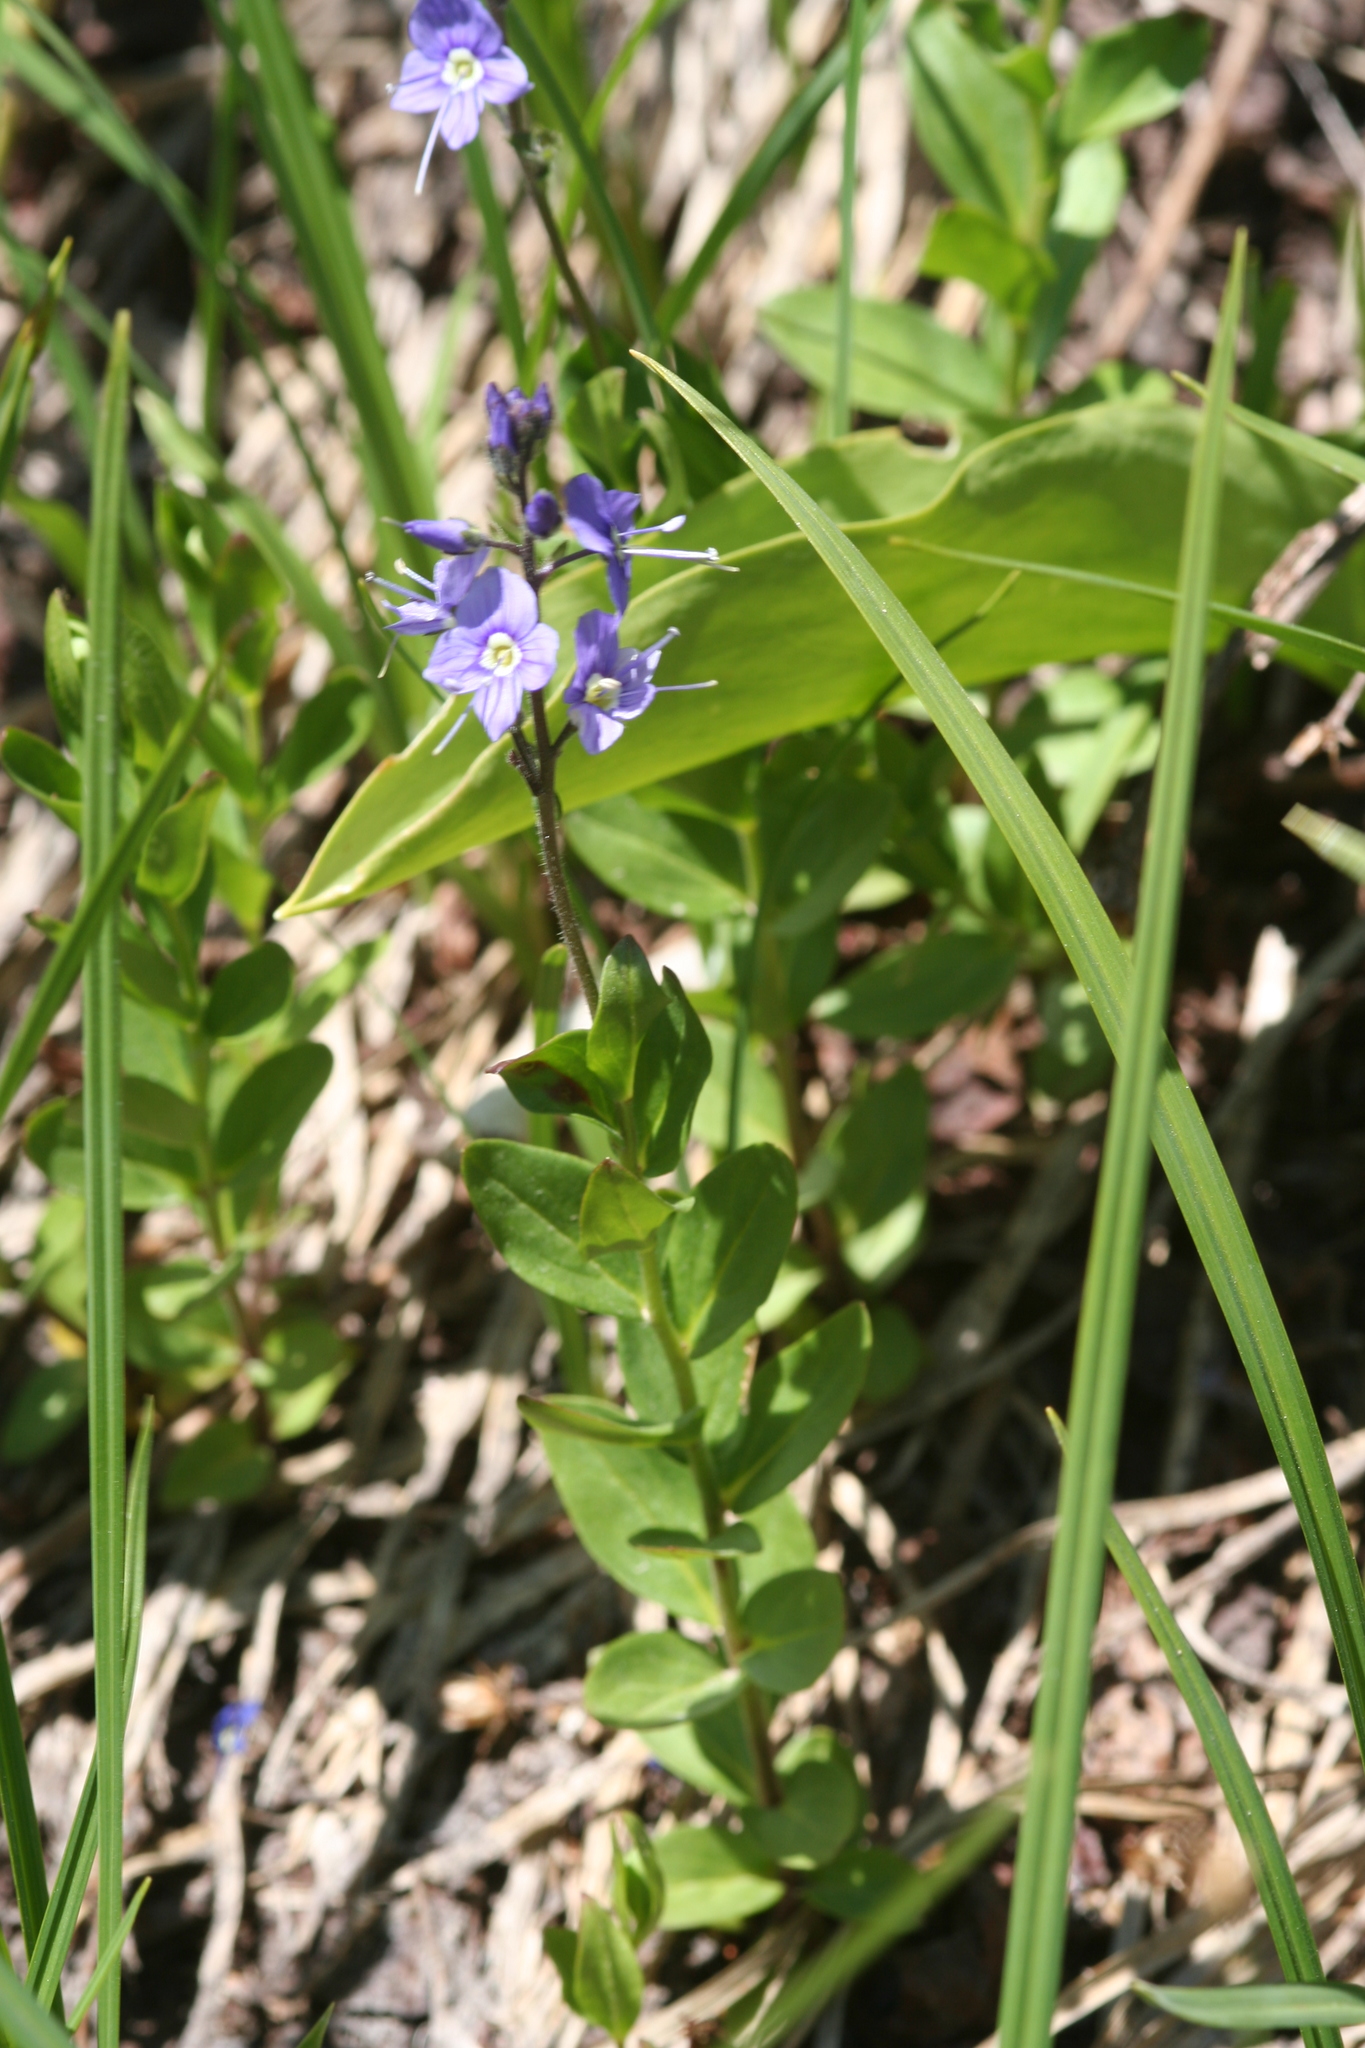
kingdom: Plantae
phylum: Tracheophyta
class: Magnoliopsida
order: Lamiales
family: Plantaginaceae
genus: Veronica
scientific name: Veronica cusickii
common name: Cusick's speedwell
